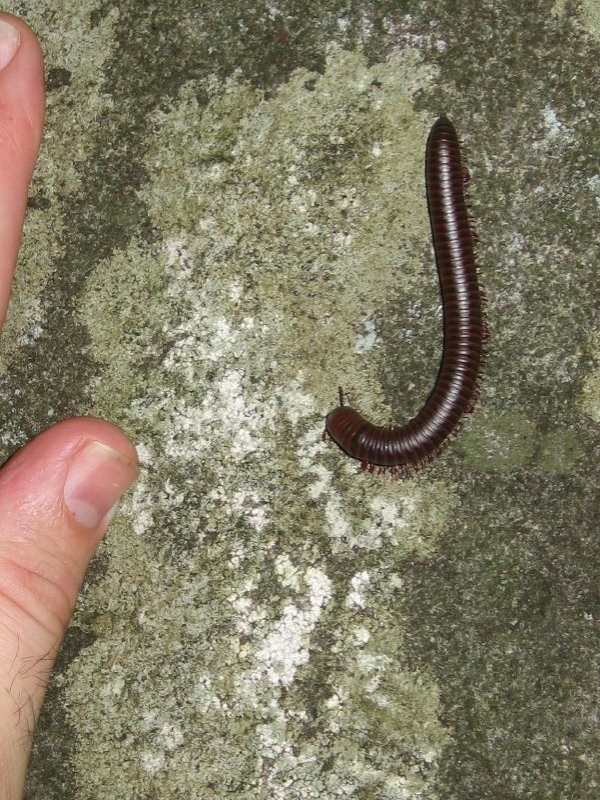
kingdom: Animalia
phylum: Arthropoda
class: Diplopoda
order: Spirobolida
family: Spirobolidae
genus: Narceus
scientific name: Narceus annularis
